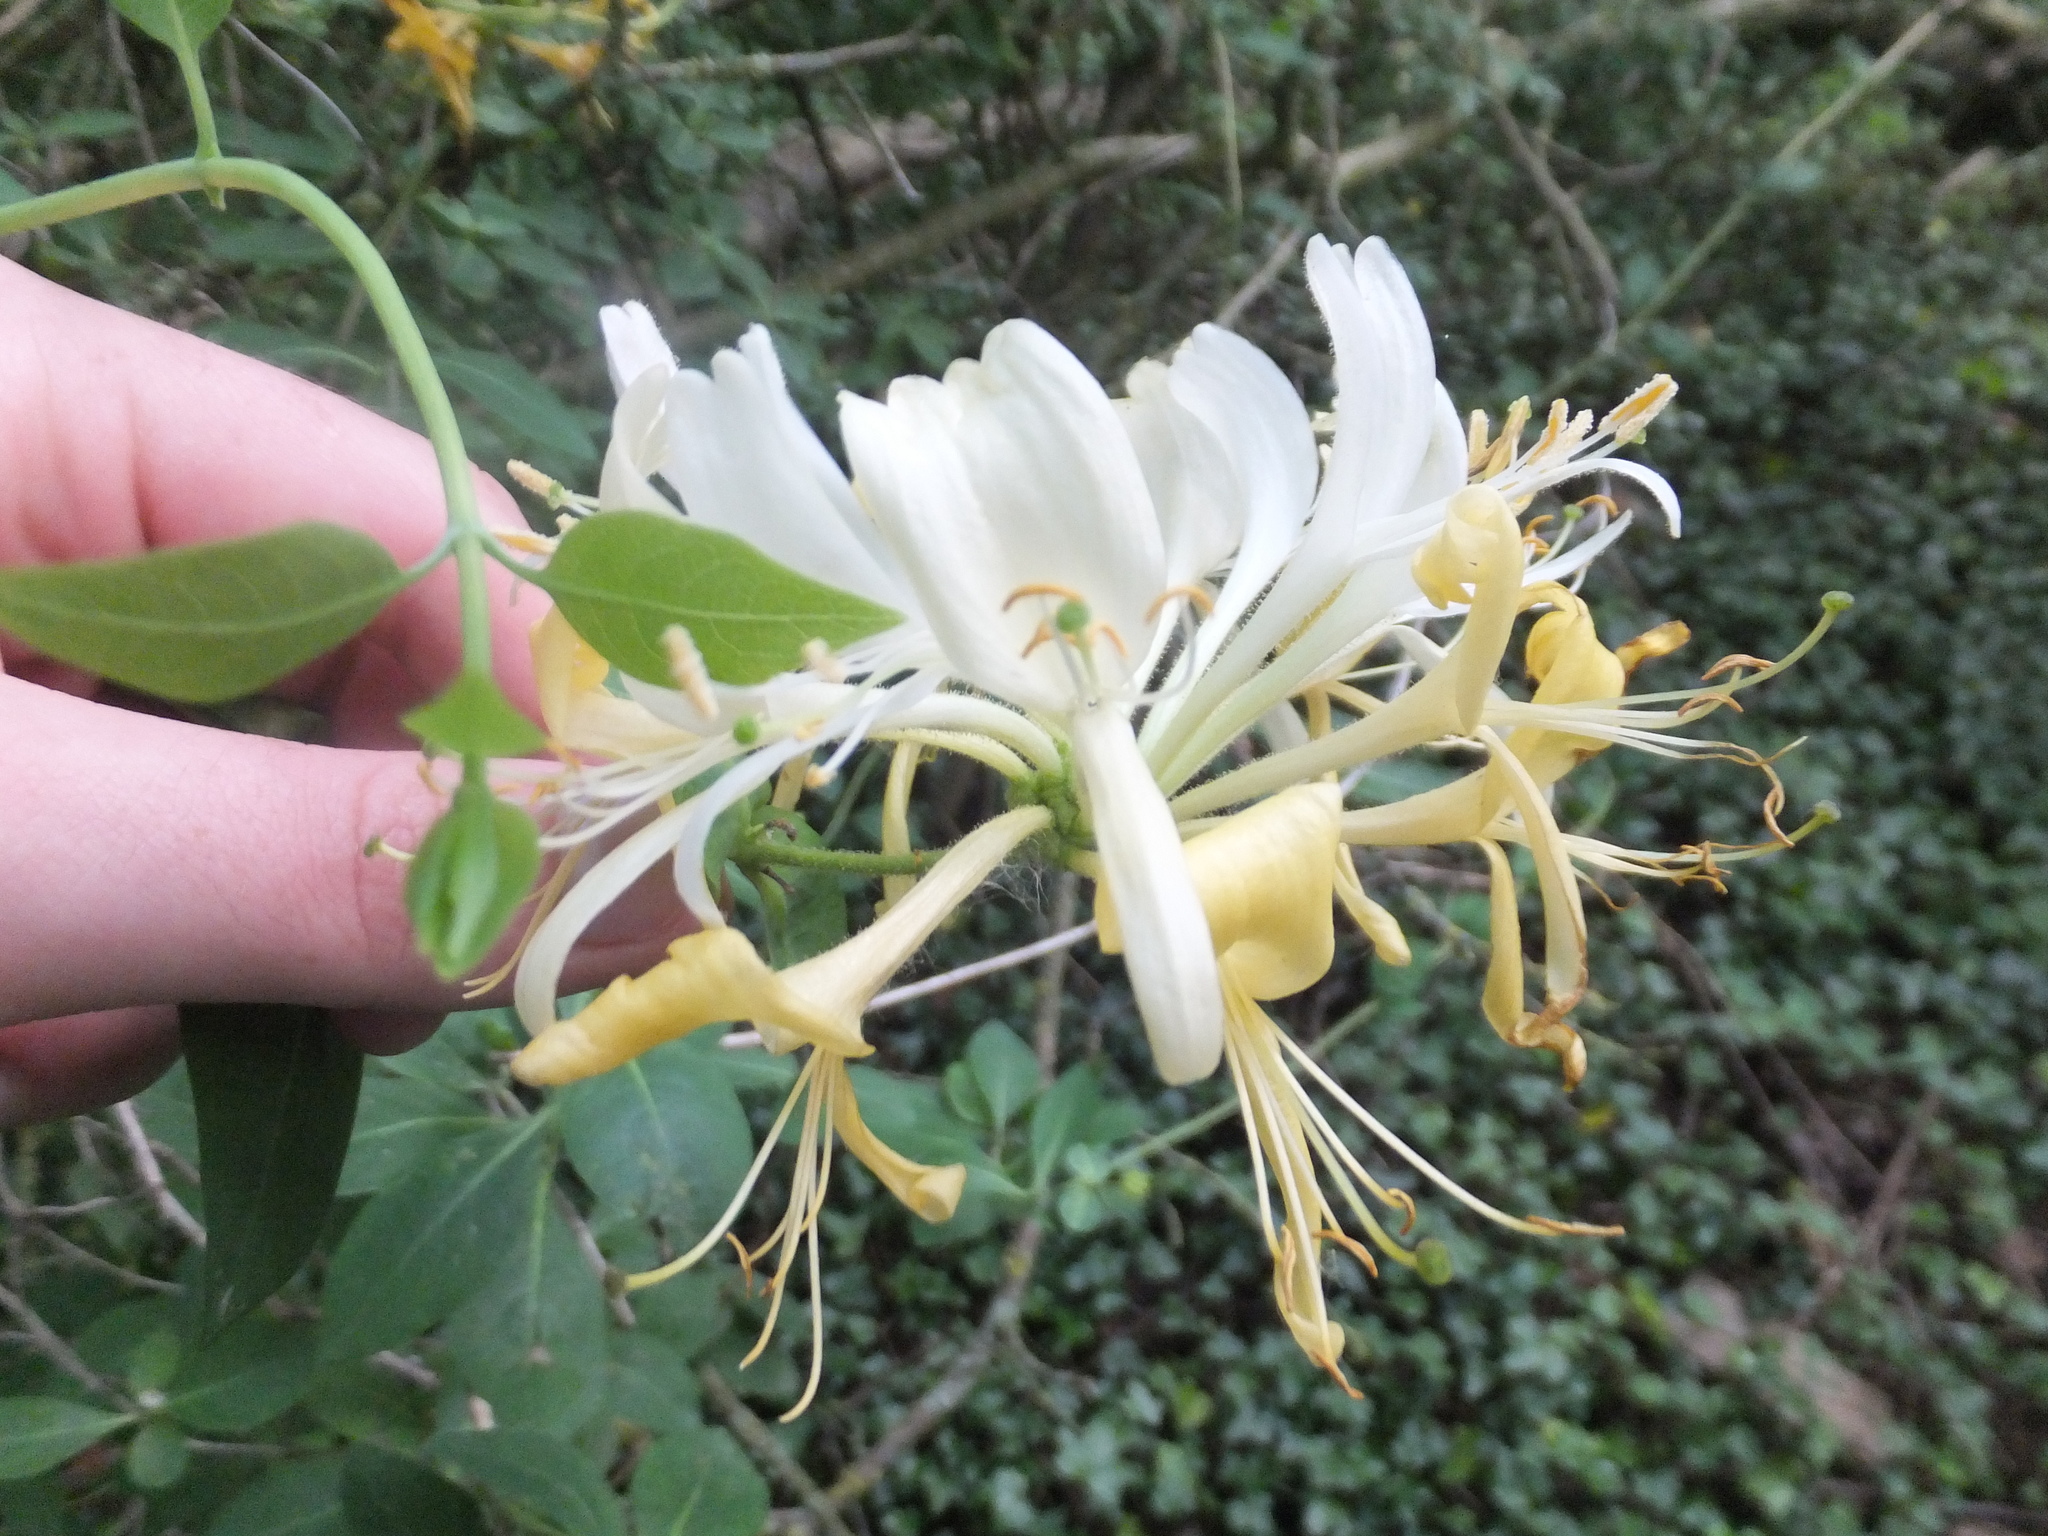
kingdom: Plantae
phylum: Tracheophyta
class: Magnoliopsida
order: Dipsacales
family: Caprifoliaceae
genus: Lonicera
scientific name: Lonicera periclymenum
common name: European honeysuckle
